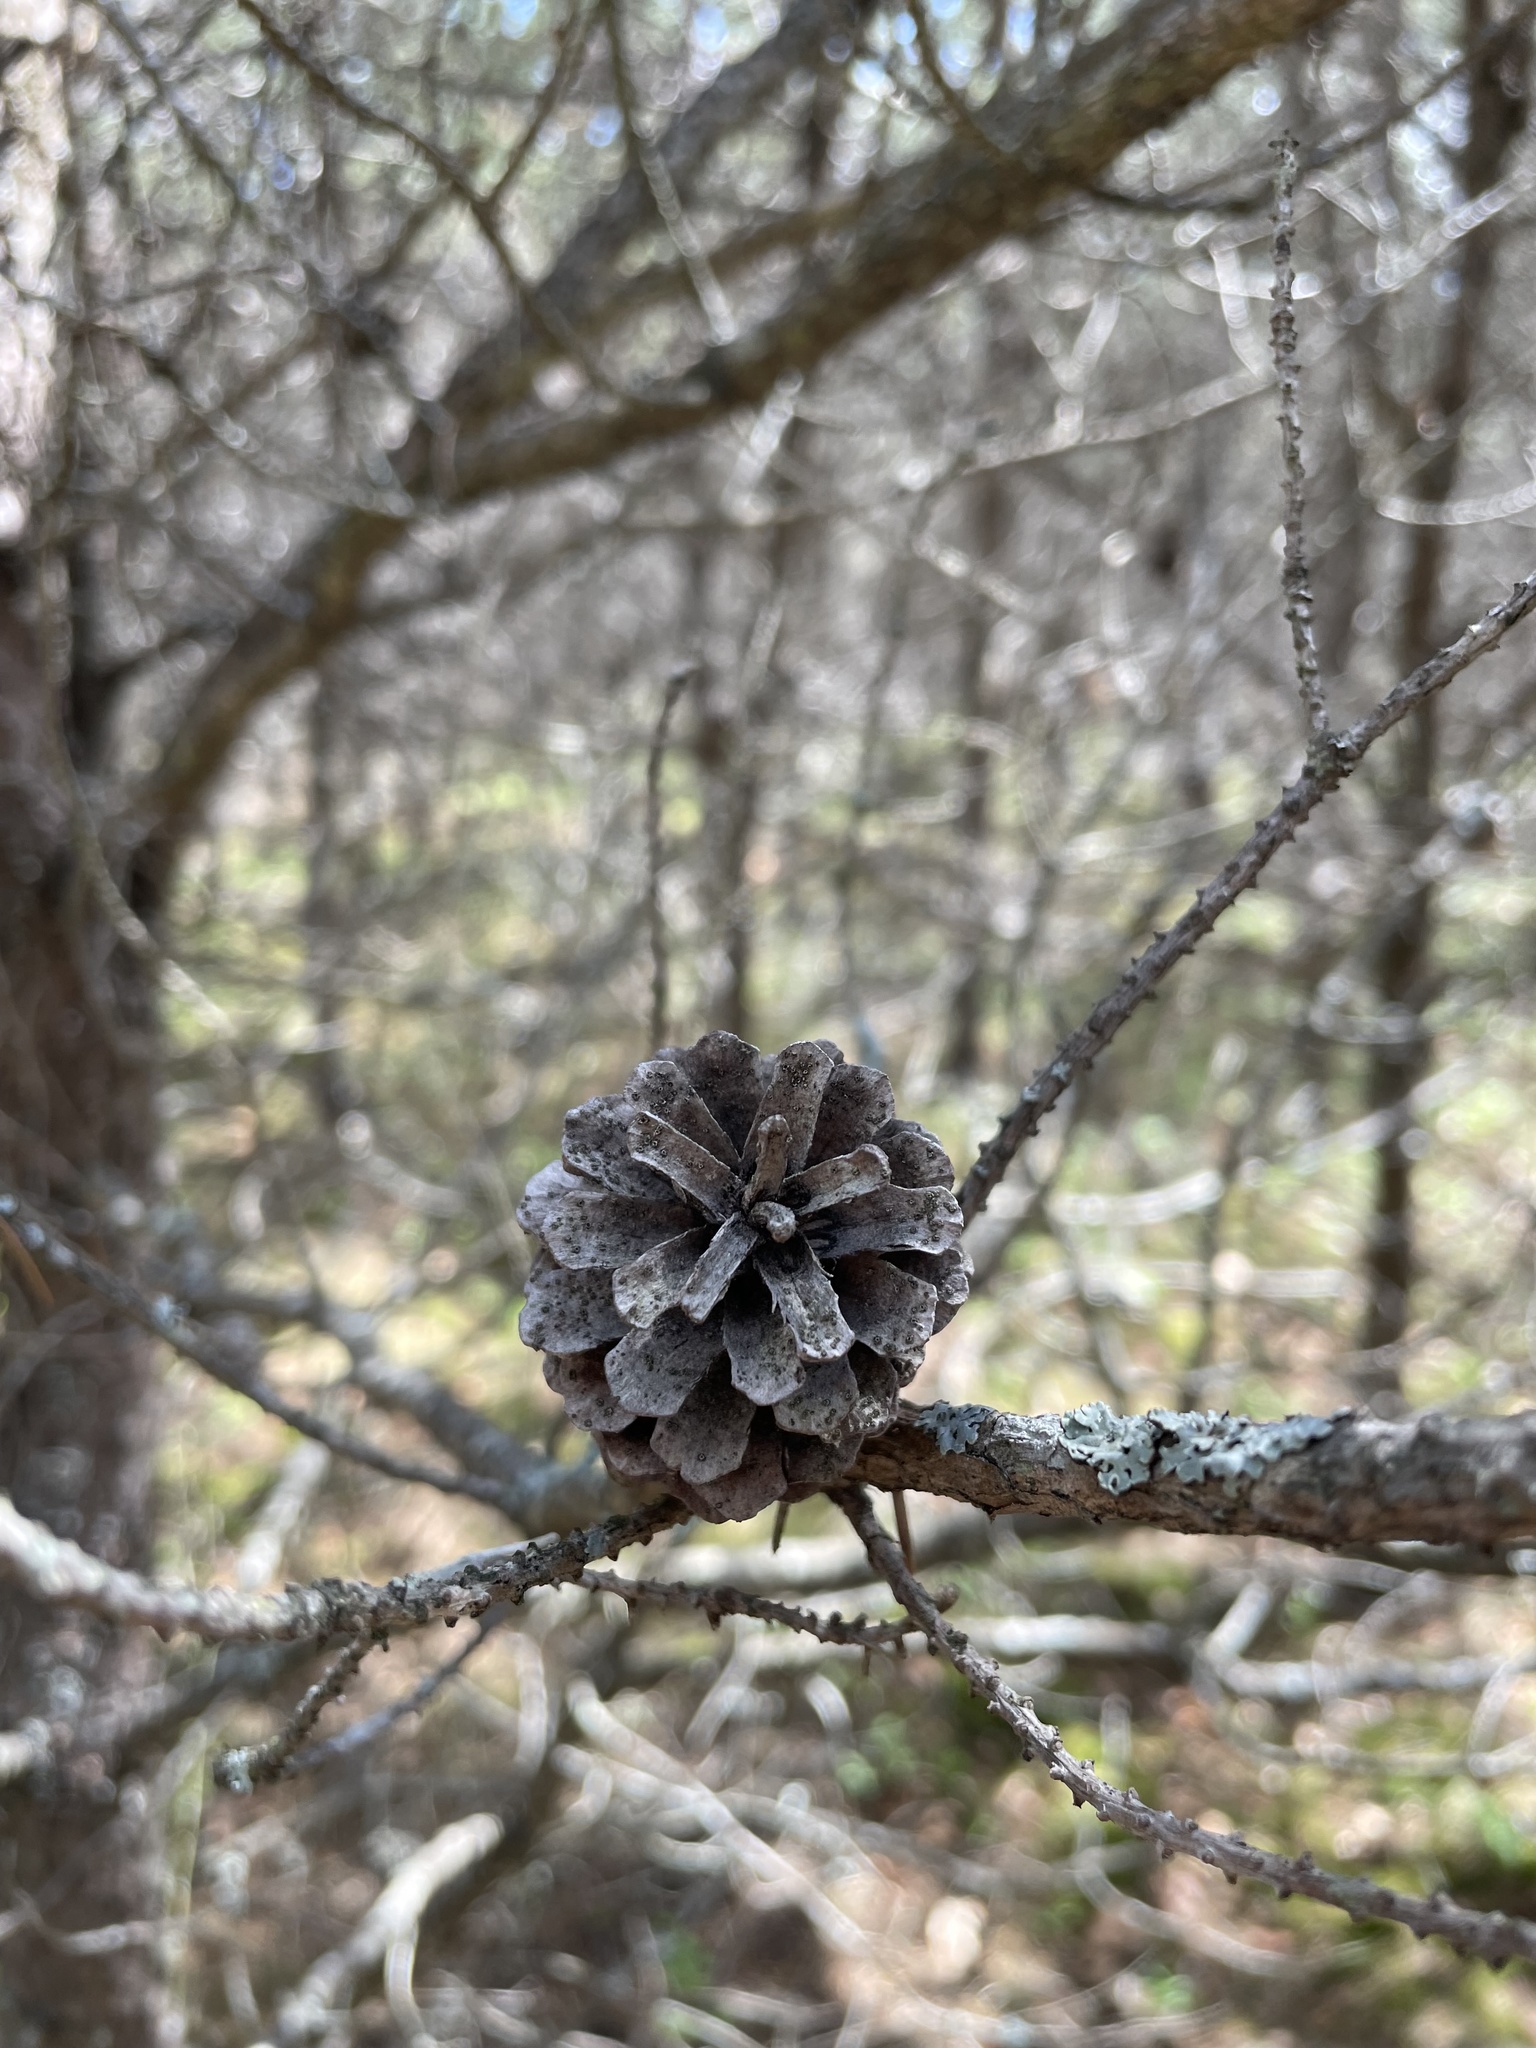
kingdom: Plantae
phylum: Tracheophyta
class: Pinopsida
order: Pinales
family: Pinaceae
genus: Pinus
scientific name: Pinus banksiana
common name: Jack pine
